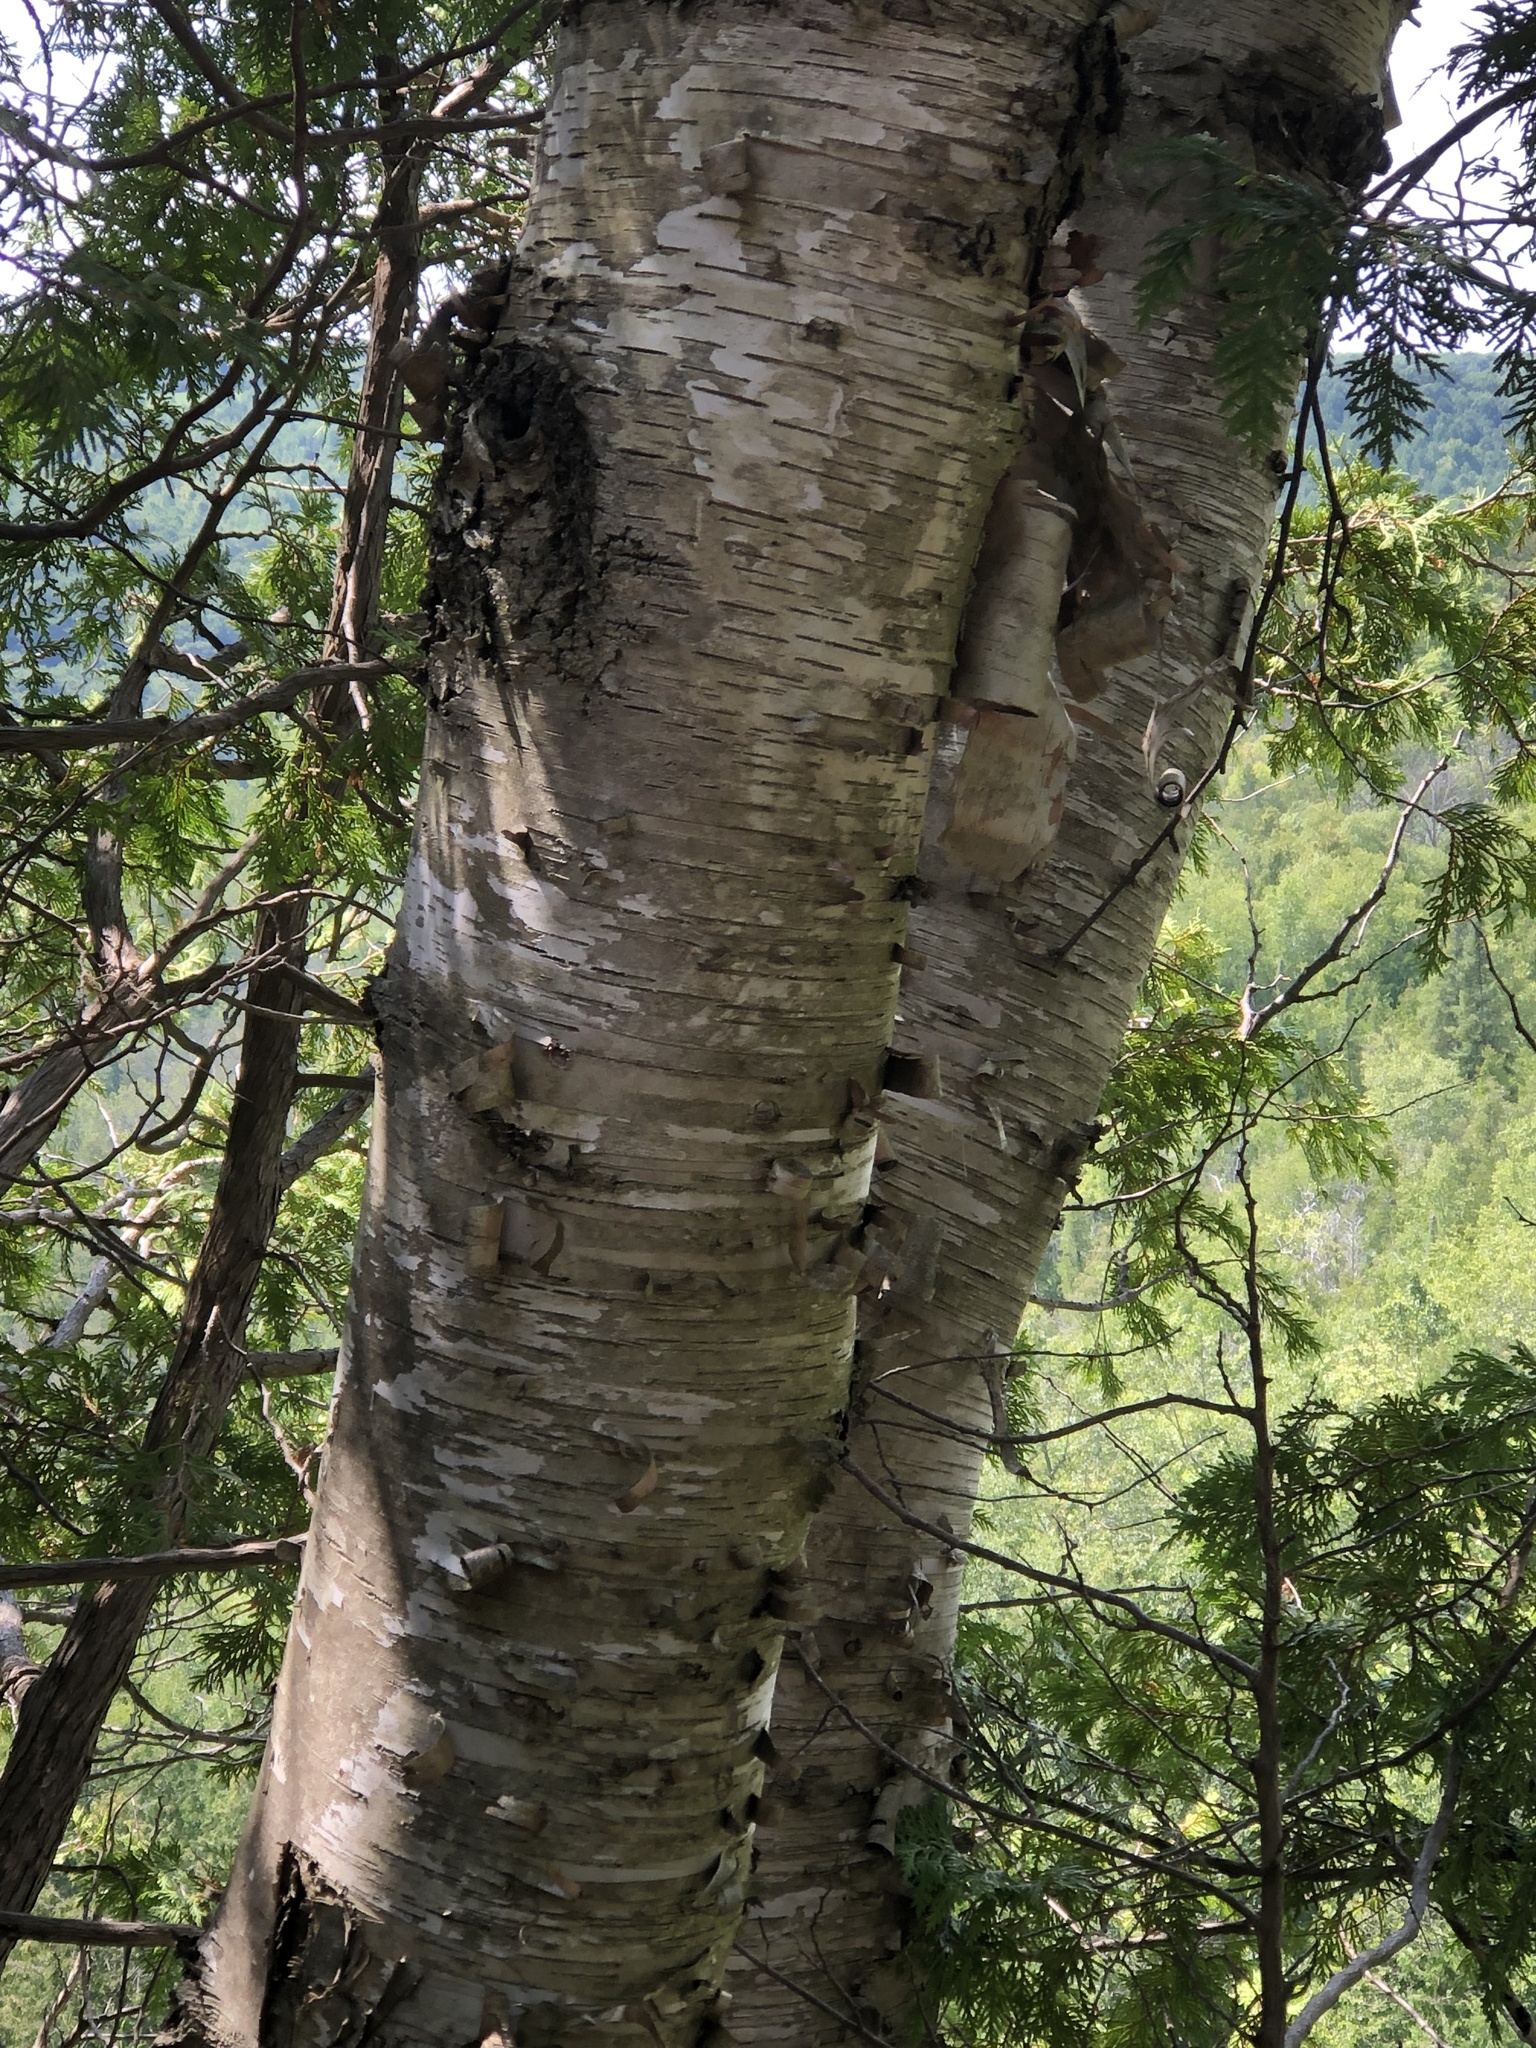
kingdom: Plantae
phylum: Tracheophyta
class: Magnoliopsida
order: Fagales
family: Betulaceae
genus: Betula
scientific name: Betula papyrifera
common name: Paper birch
